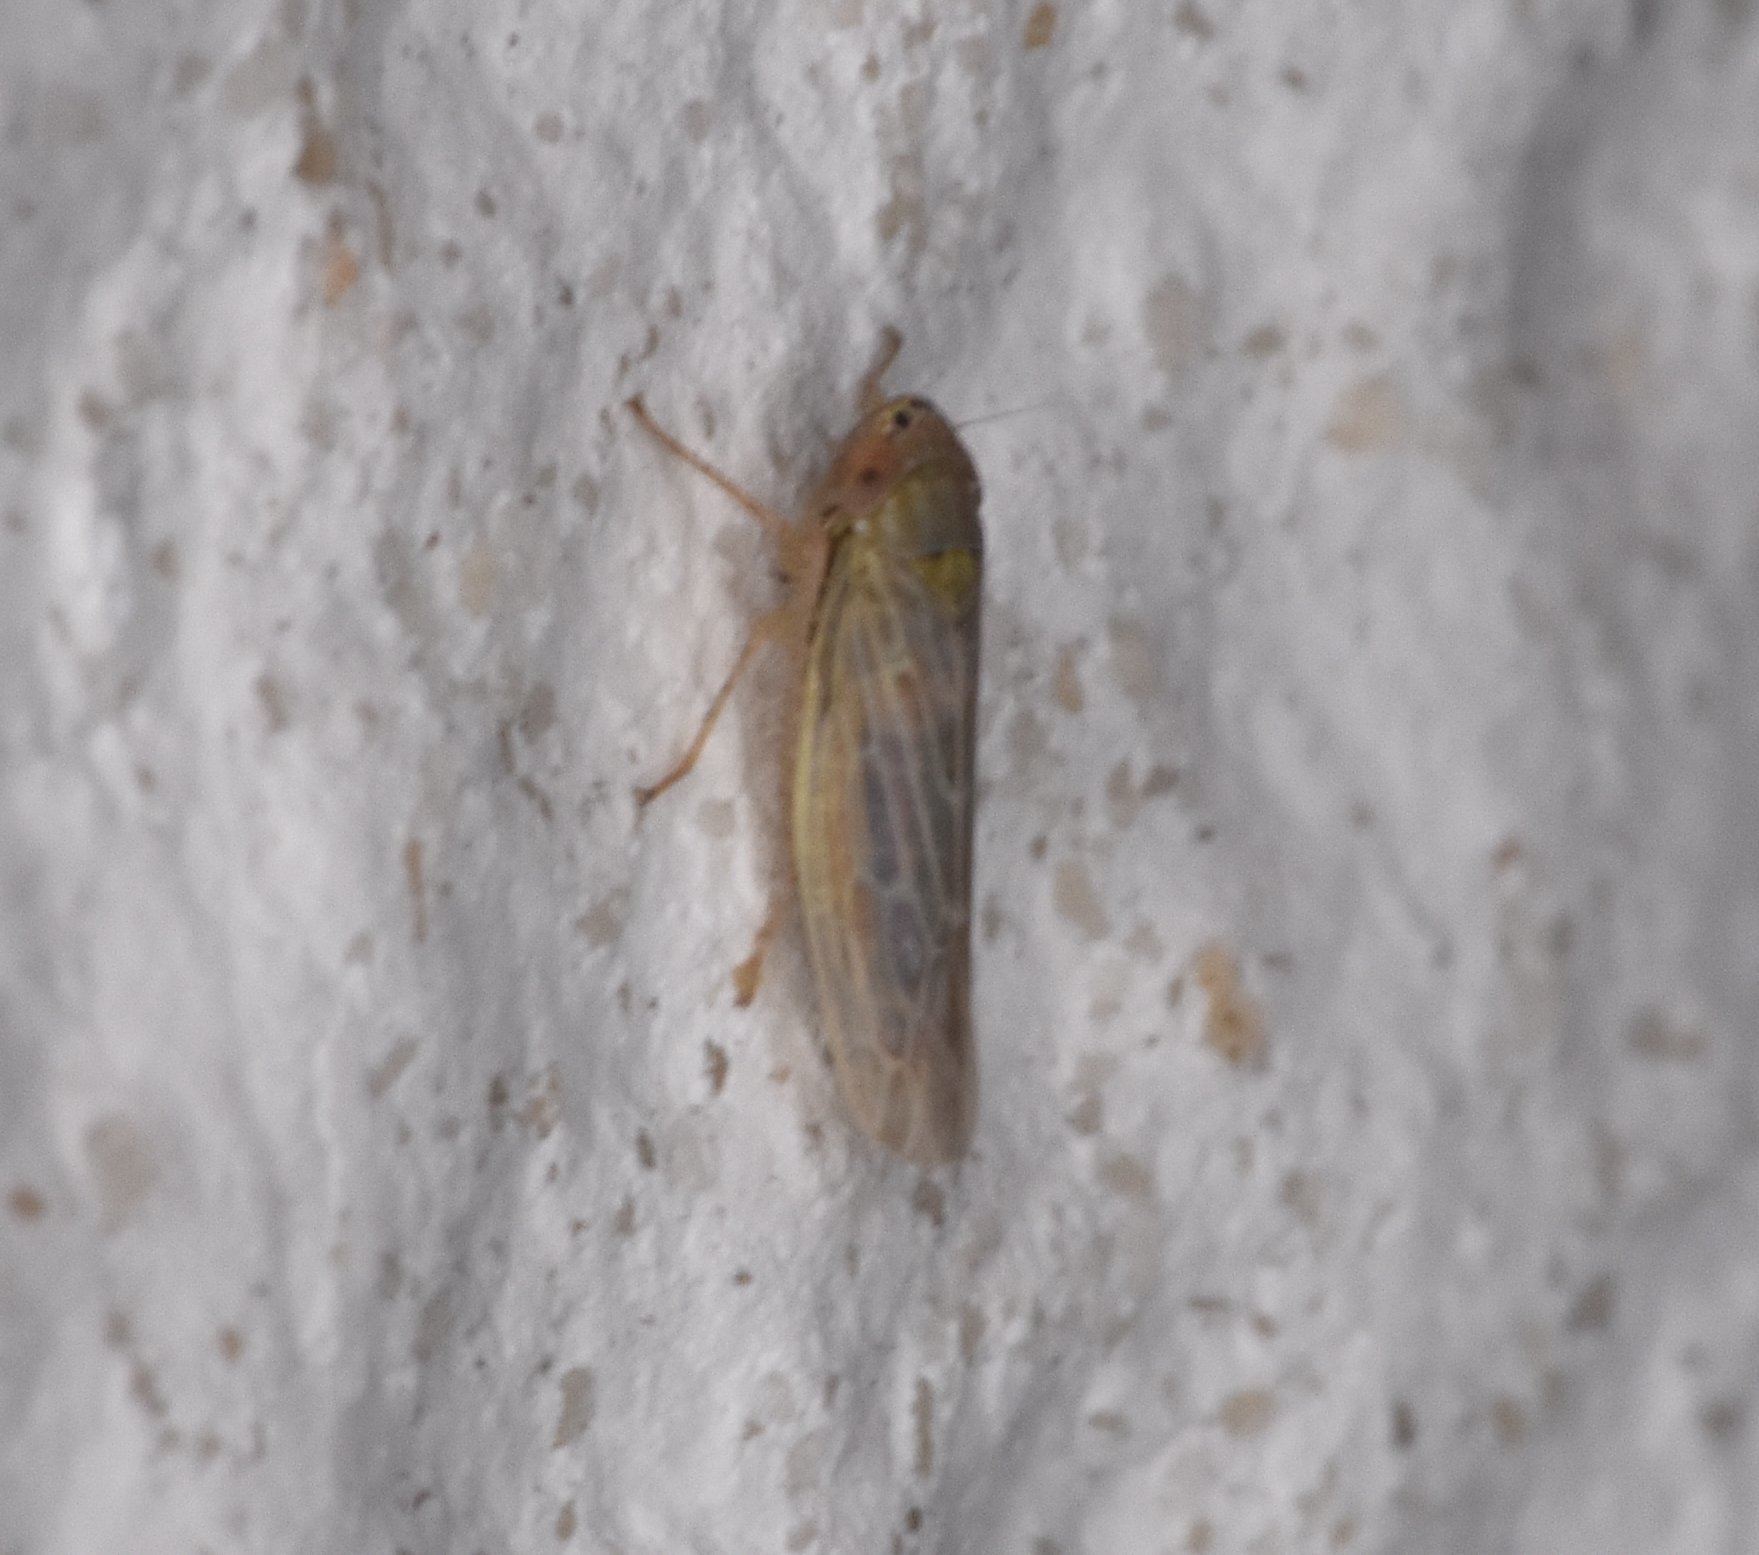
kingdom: Animalia
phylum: Arthropoda
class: Insecta
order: Hemiptera
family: Cicadellidae
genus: Graminella
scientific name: Graminella sonora
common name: Lesser lawn leafhopper
